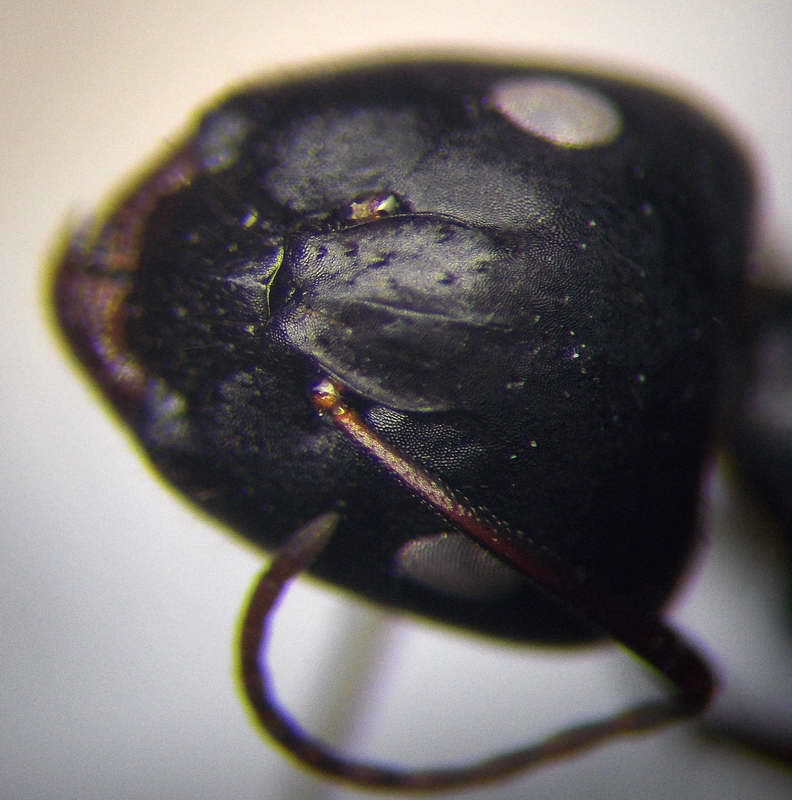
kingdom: Animalia
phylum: Arthropoda
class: Insecta
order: Hymenoptera
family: Formicidae
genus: Camponotus
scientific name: Camponotus aethiops
